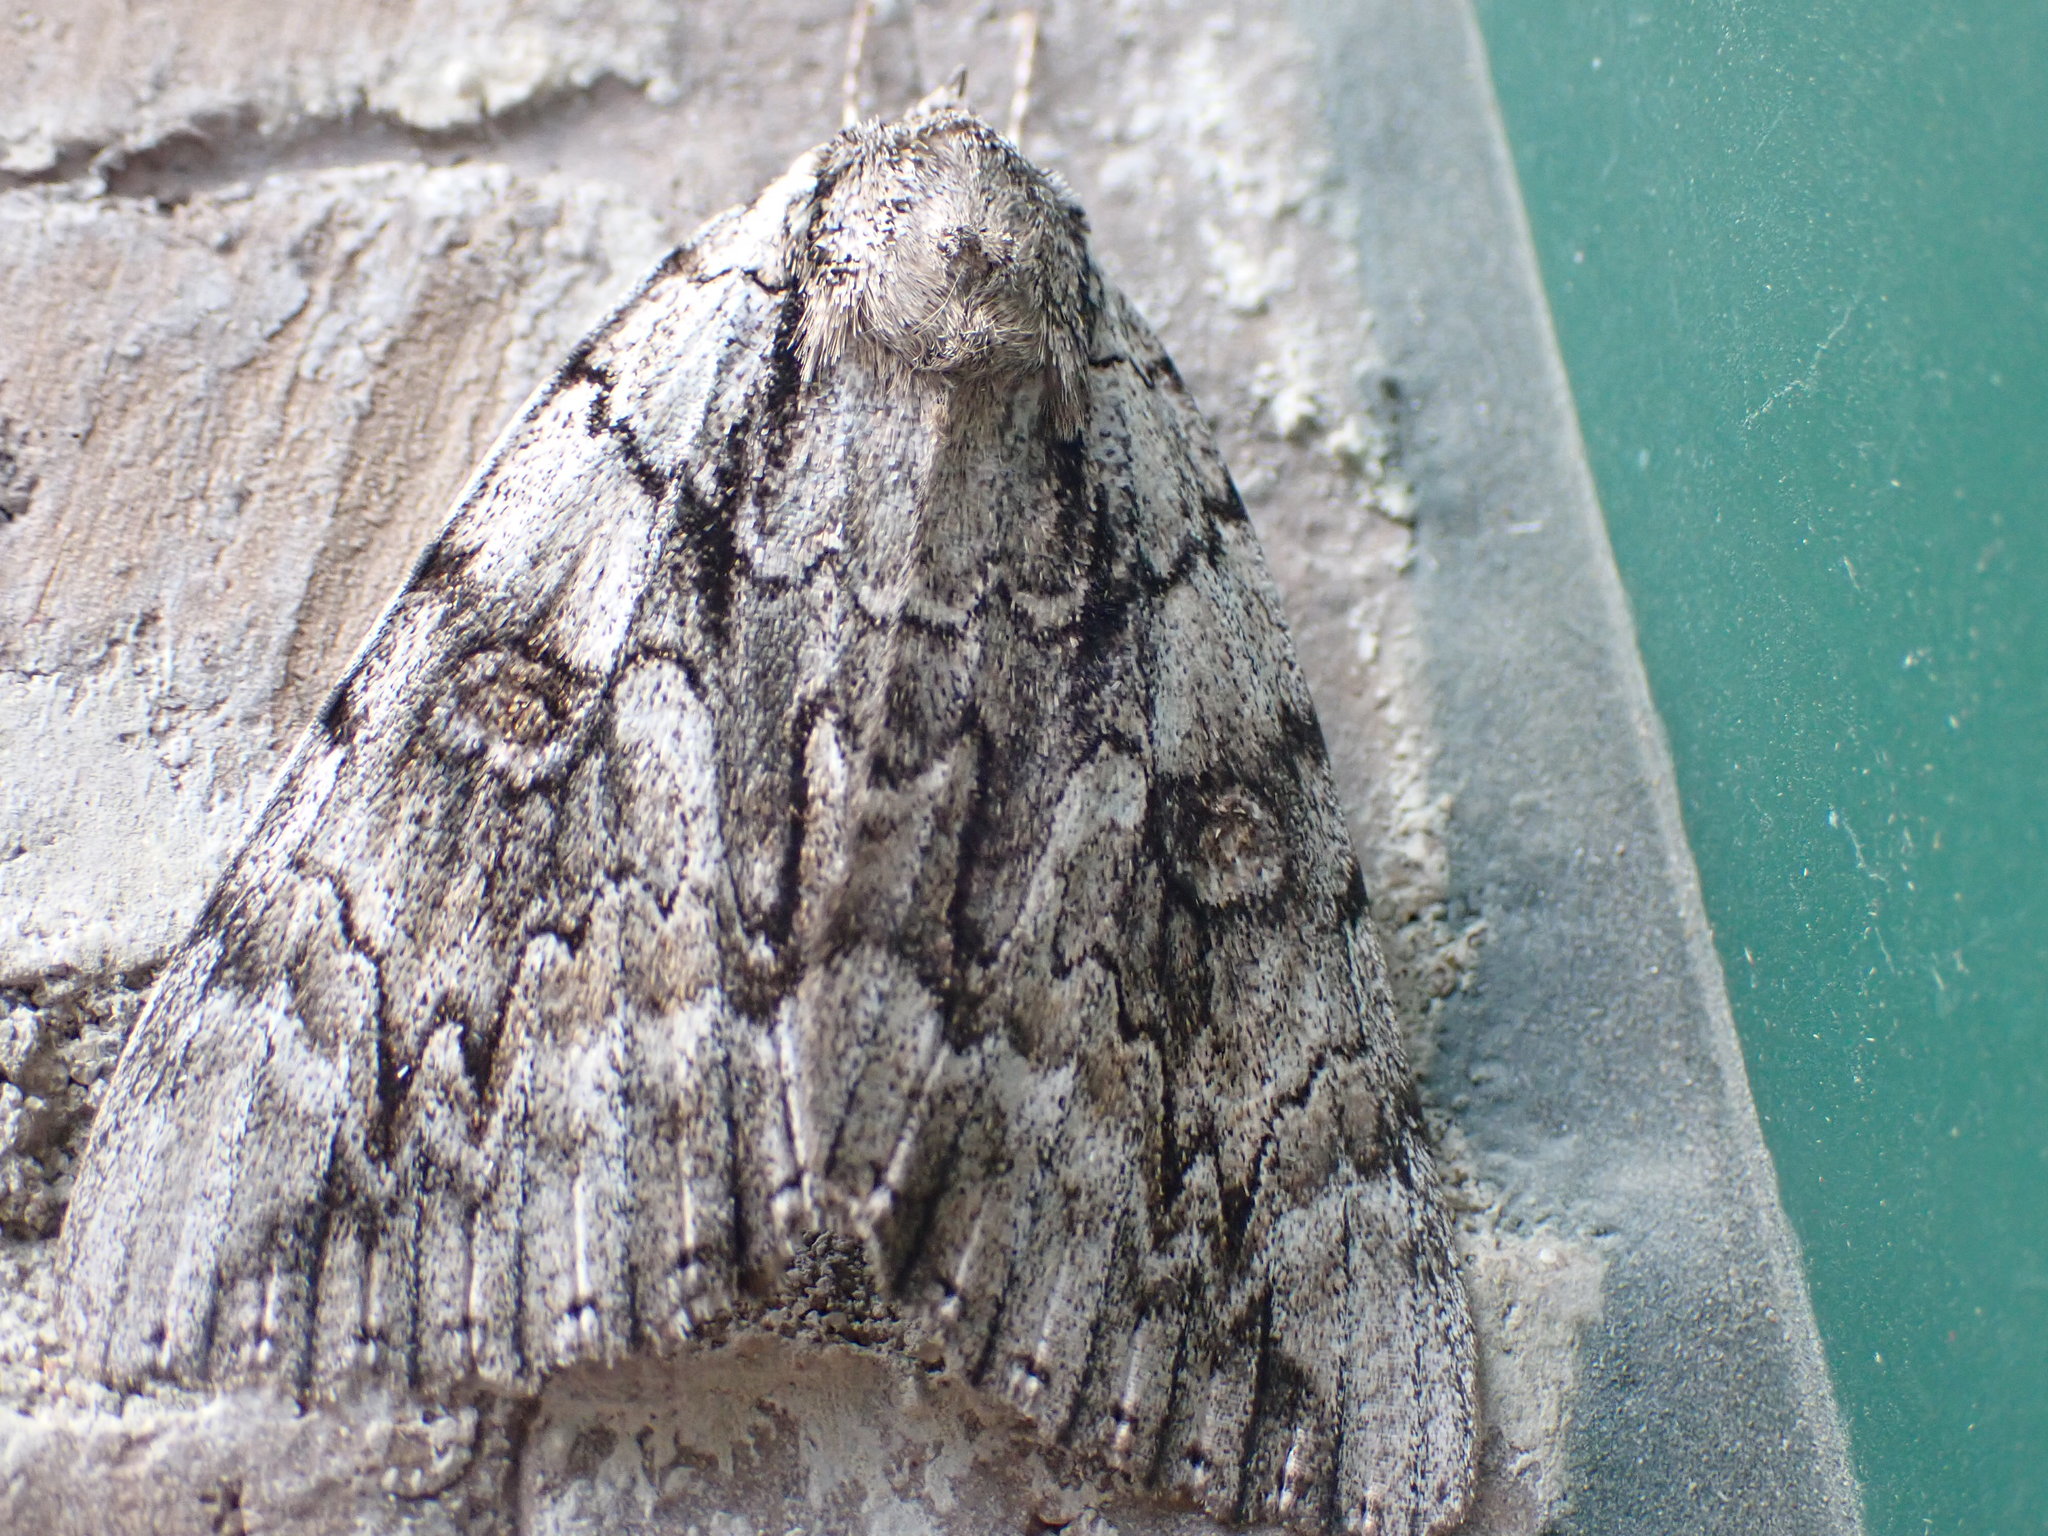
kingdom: Animalia
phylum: Arthropoda
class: Insecta
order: Lepidoptera
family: Erebidae
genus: Catocala
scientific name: Catocala retecta
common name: Yellow-gray underwing
